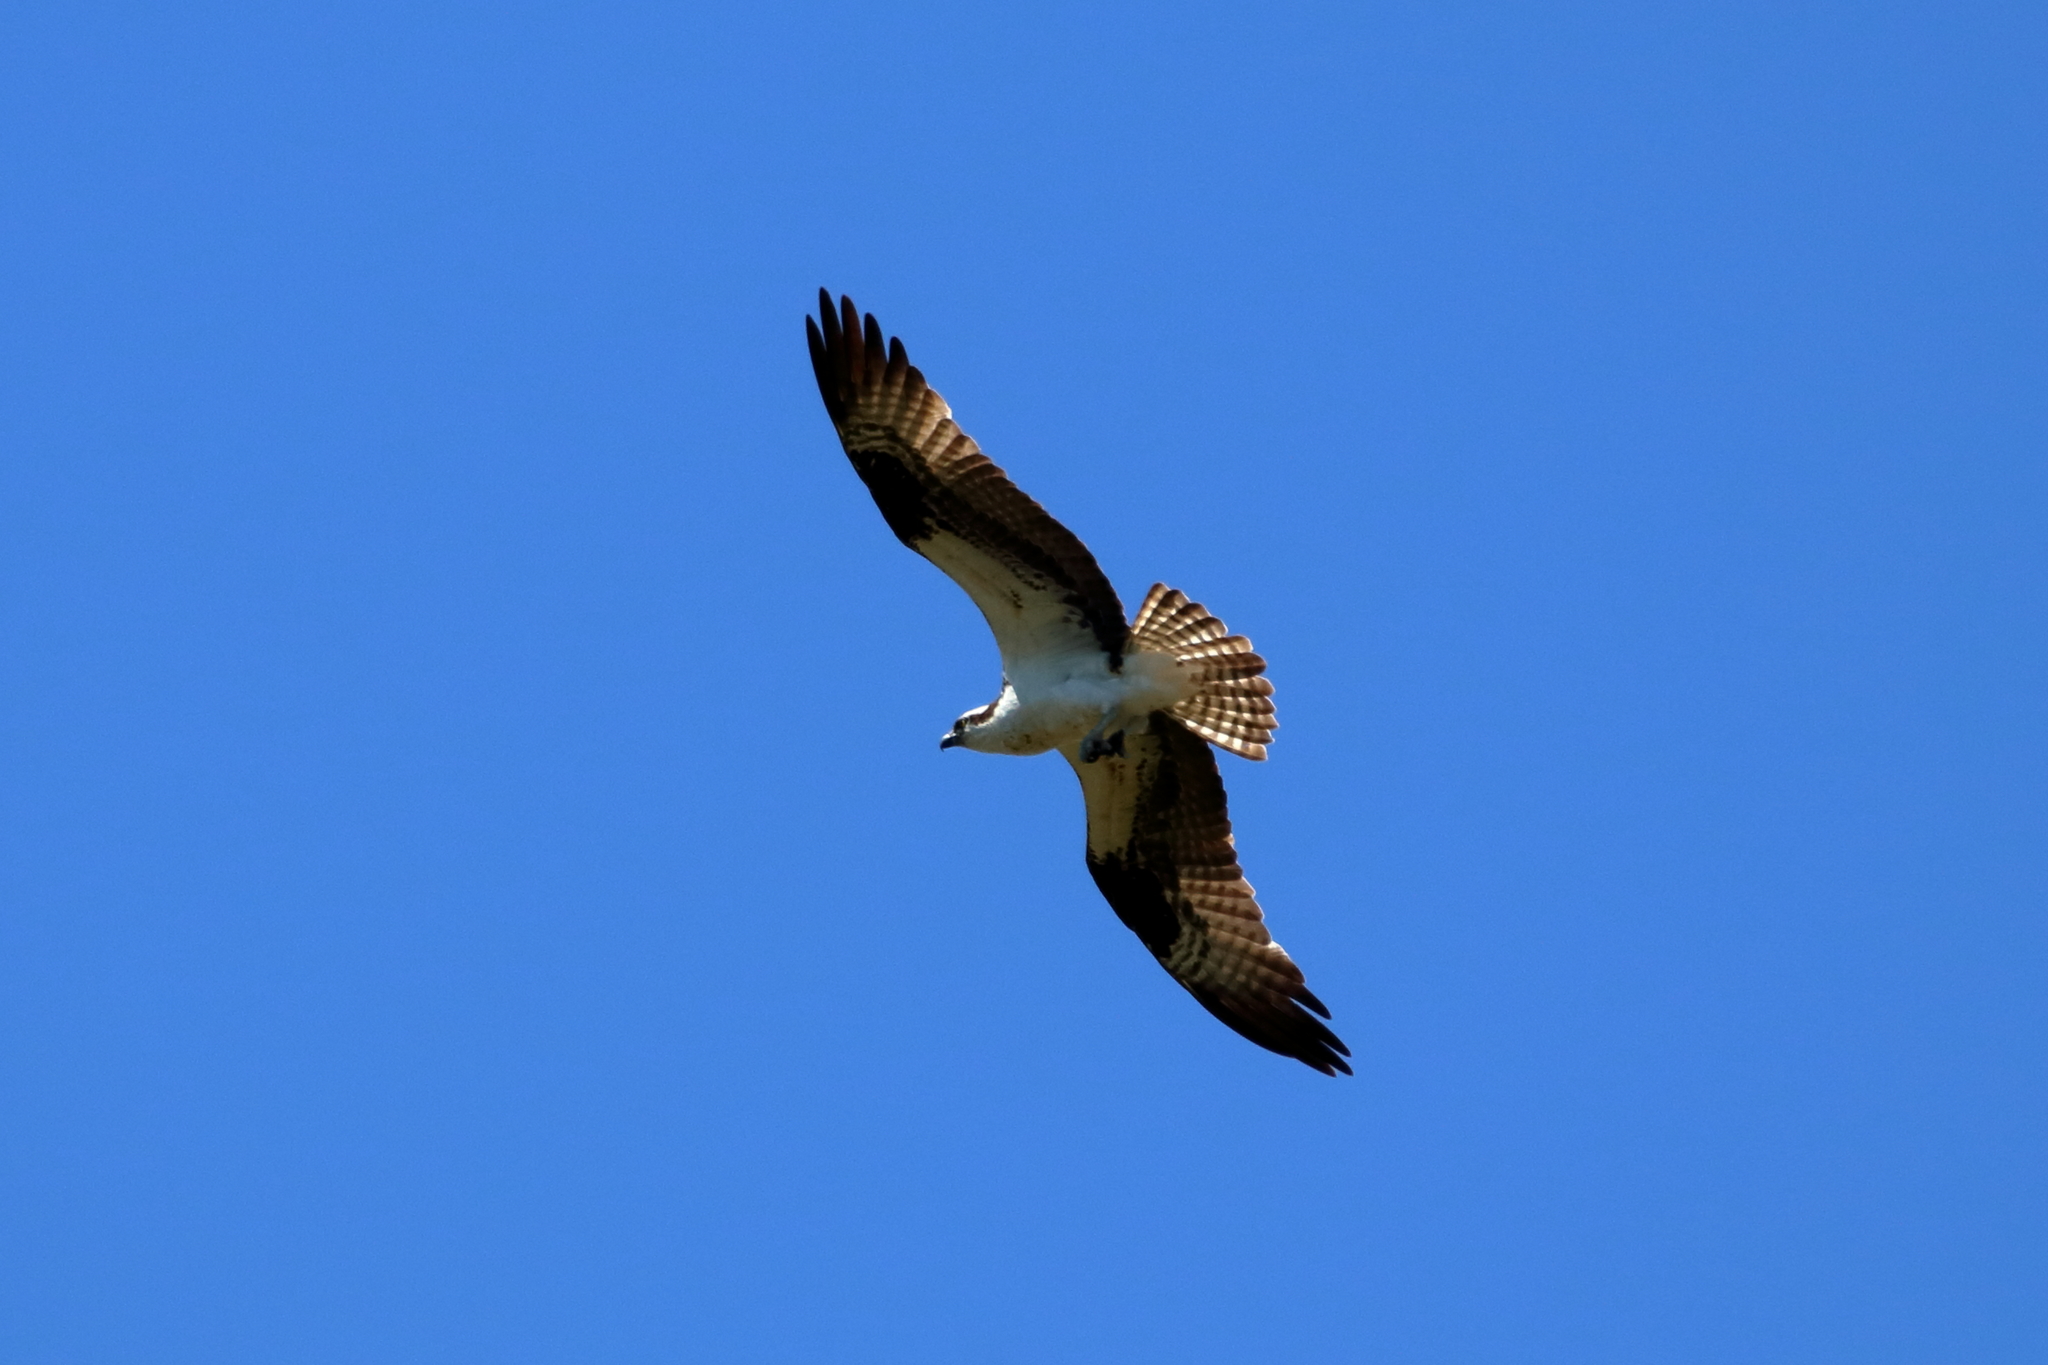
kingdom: Animalia
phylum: Chordata
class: Aves
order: Accipitriformes
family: Pandionidae
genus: Pandion
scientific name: Pandion haliaetus
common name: Osprey
